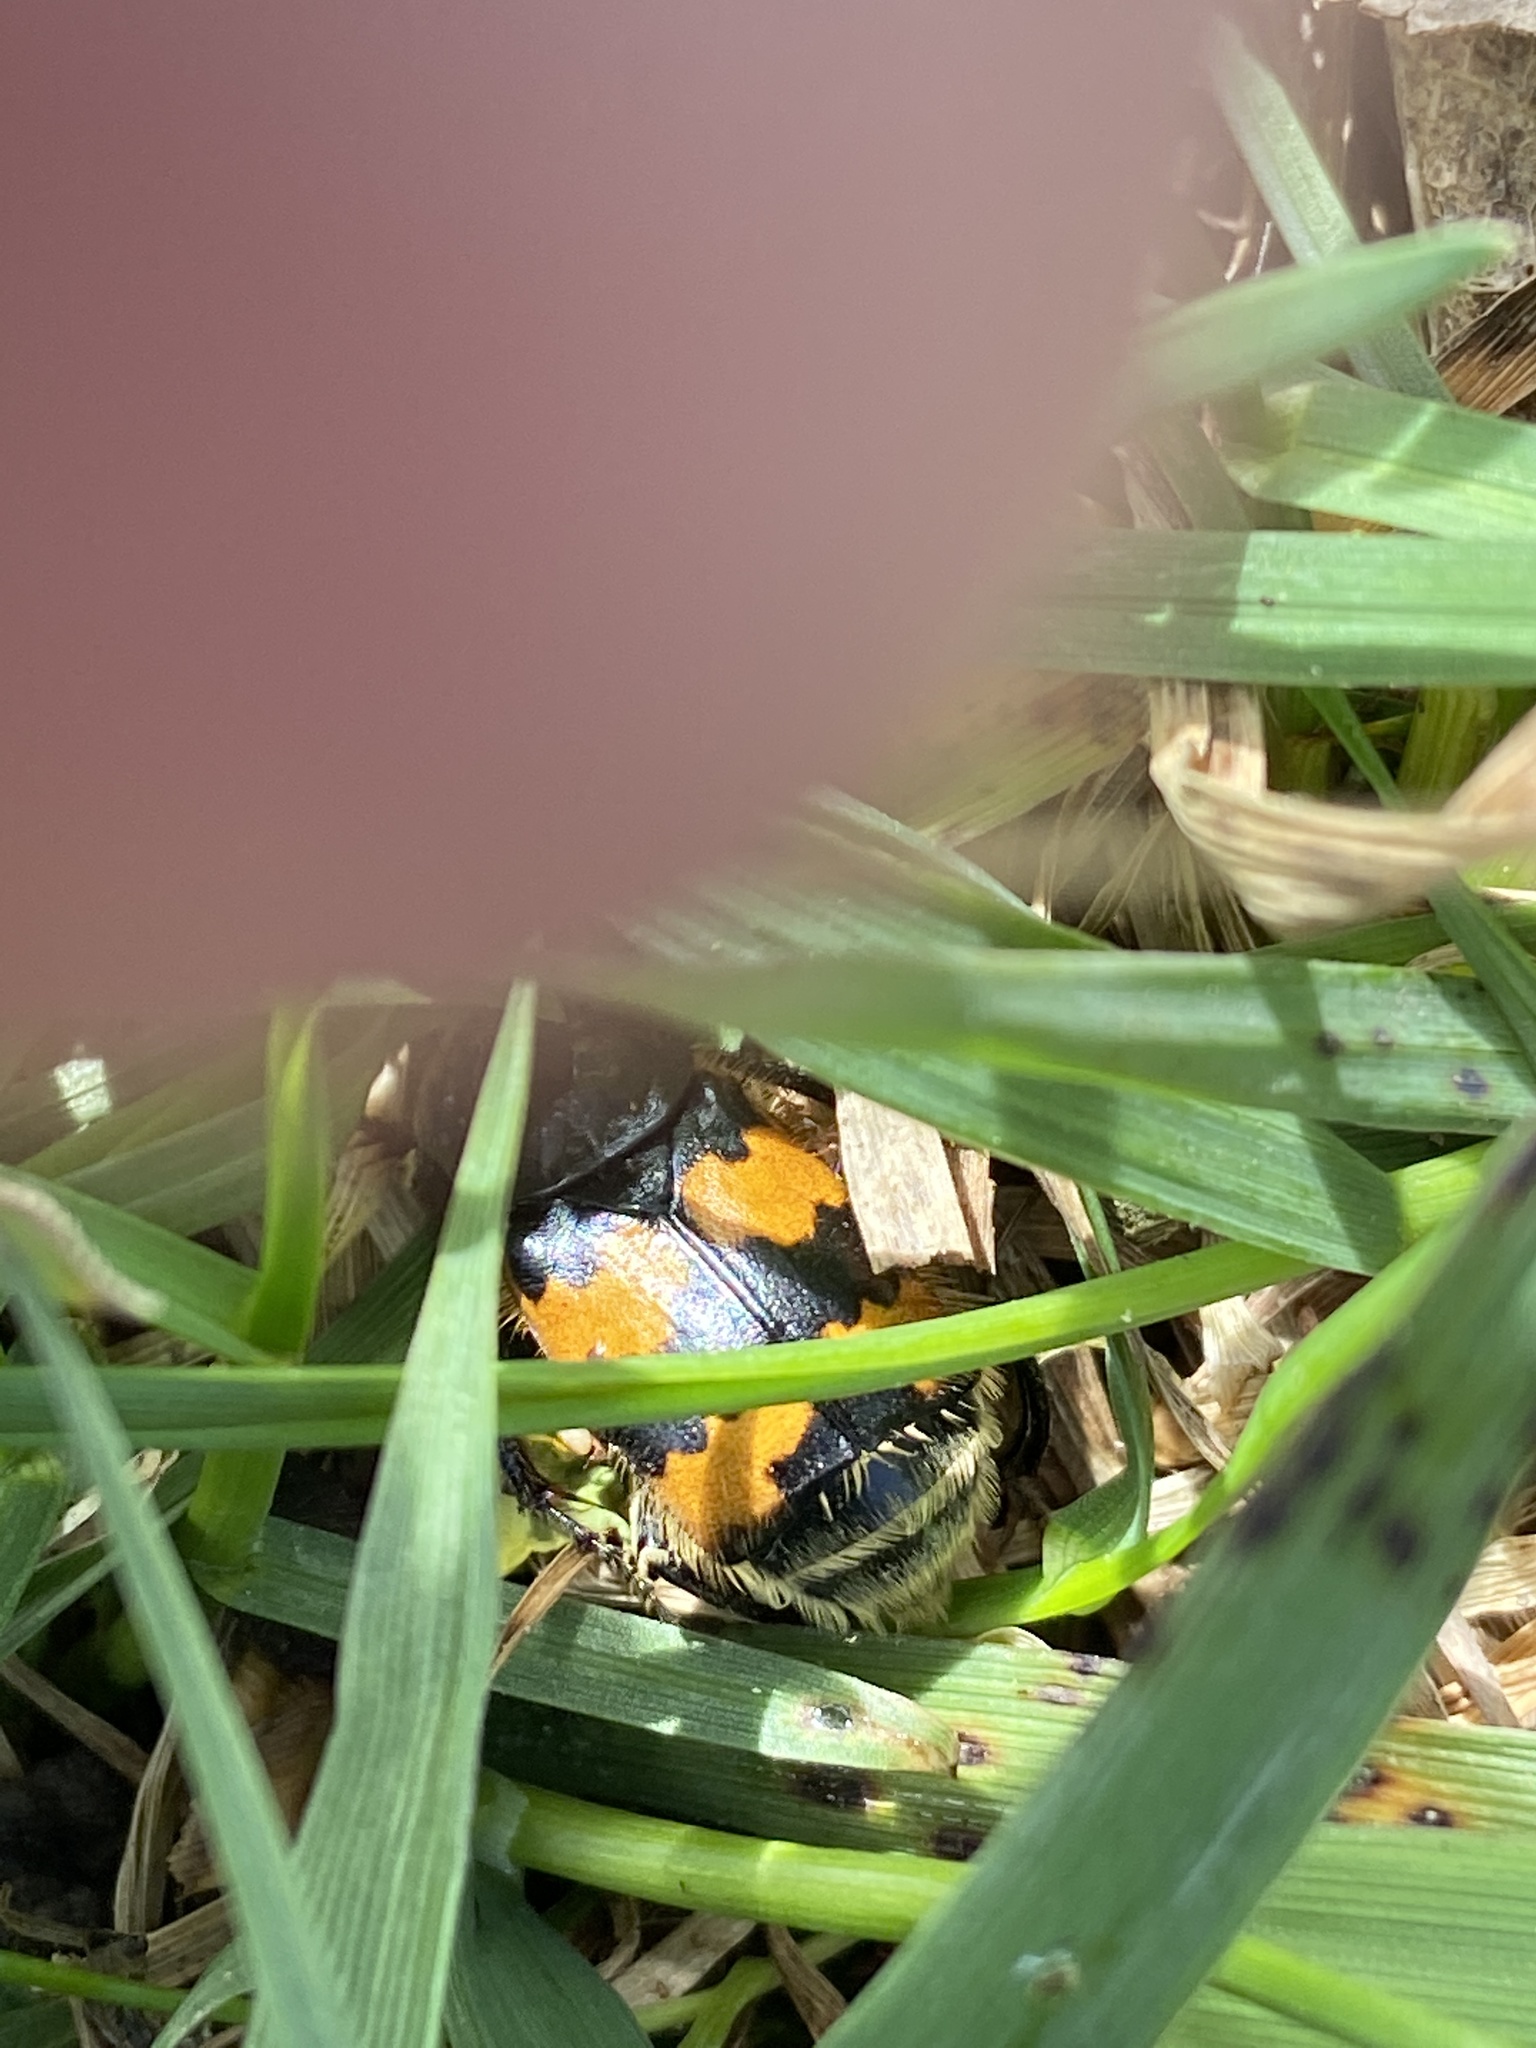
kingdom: Animalia
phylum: Arthropoda
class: Insecta
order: Coleoptera
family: Staphylinidae
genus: Nicrophorus
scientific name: Nicrophorus vespillo
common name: Common burying beetle
